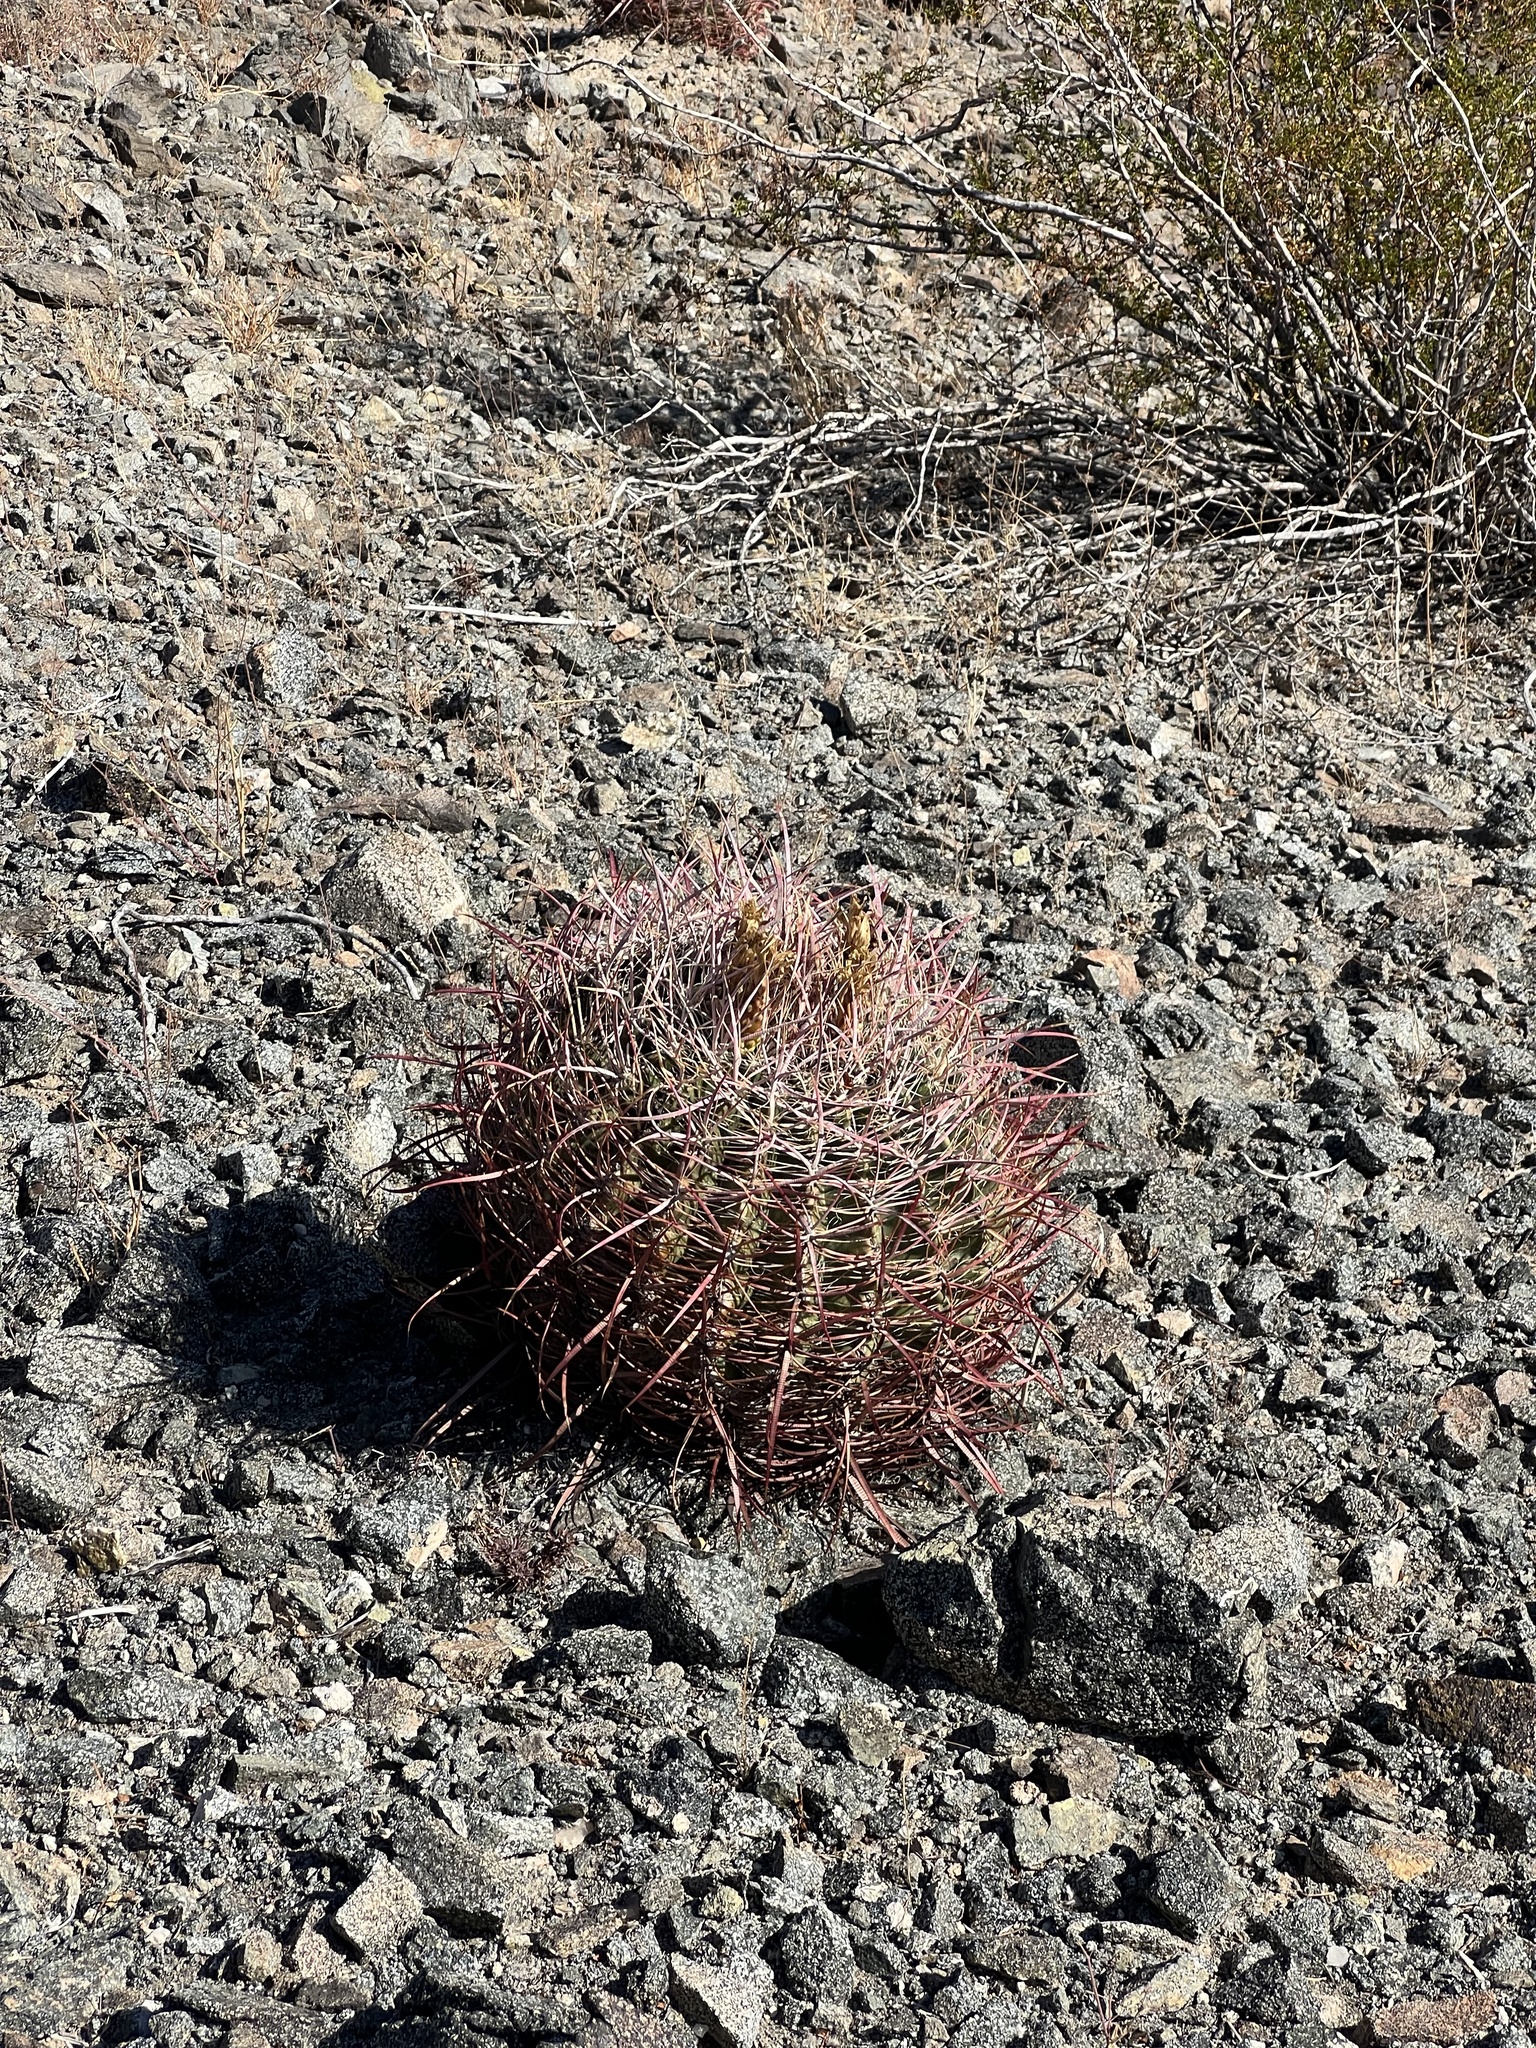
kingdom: Plantae
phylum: Tracheophyta
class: Magnoliopsida
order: Caryophyllales
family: Cactaceae
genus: Ferocactus
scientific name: Ferocactus cylindraceus
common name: California barrel cactus
